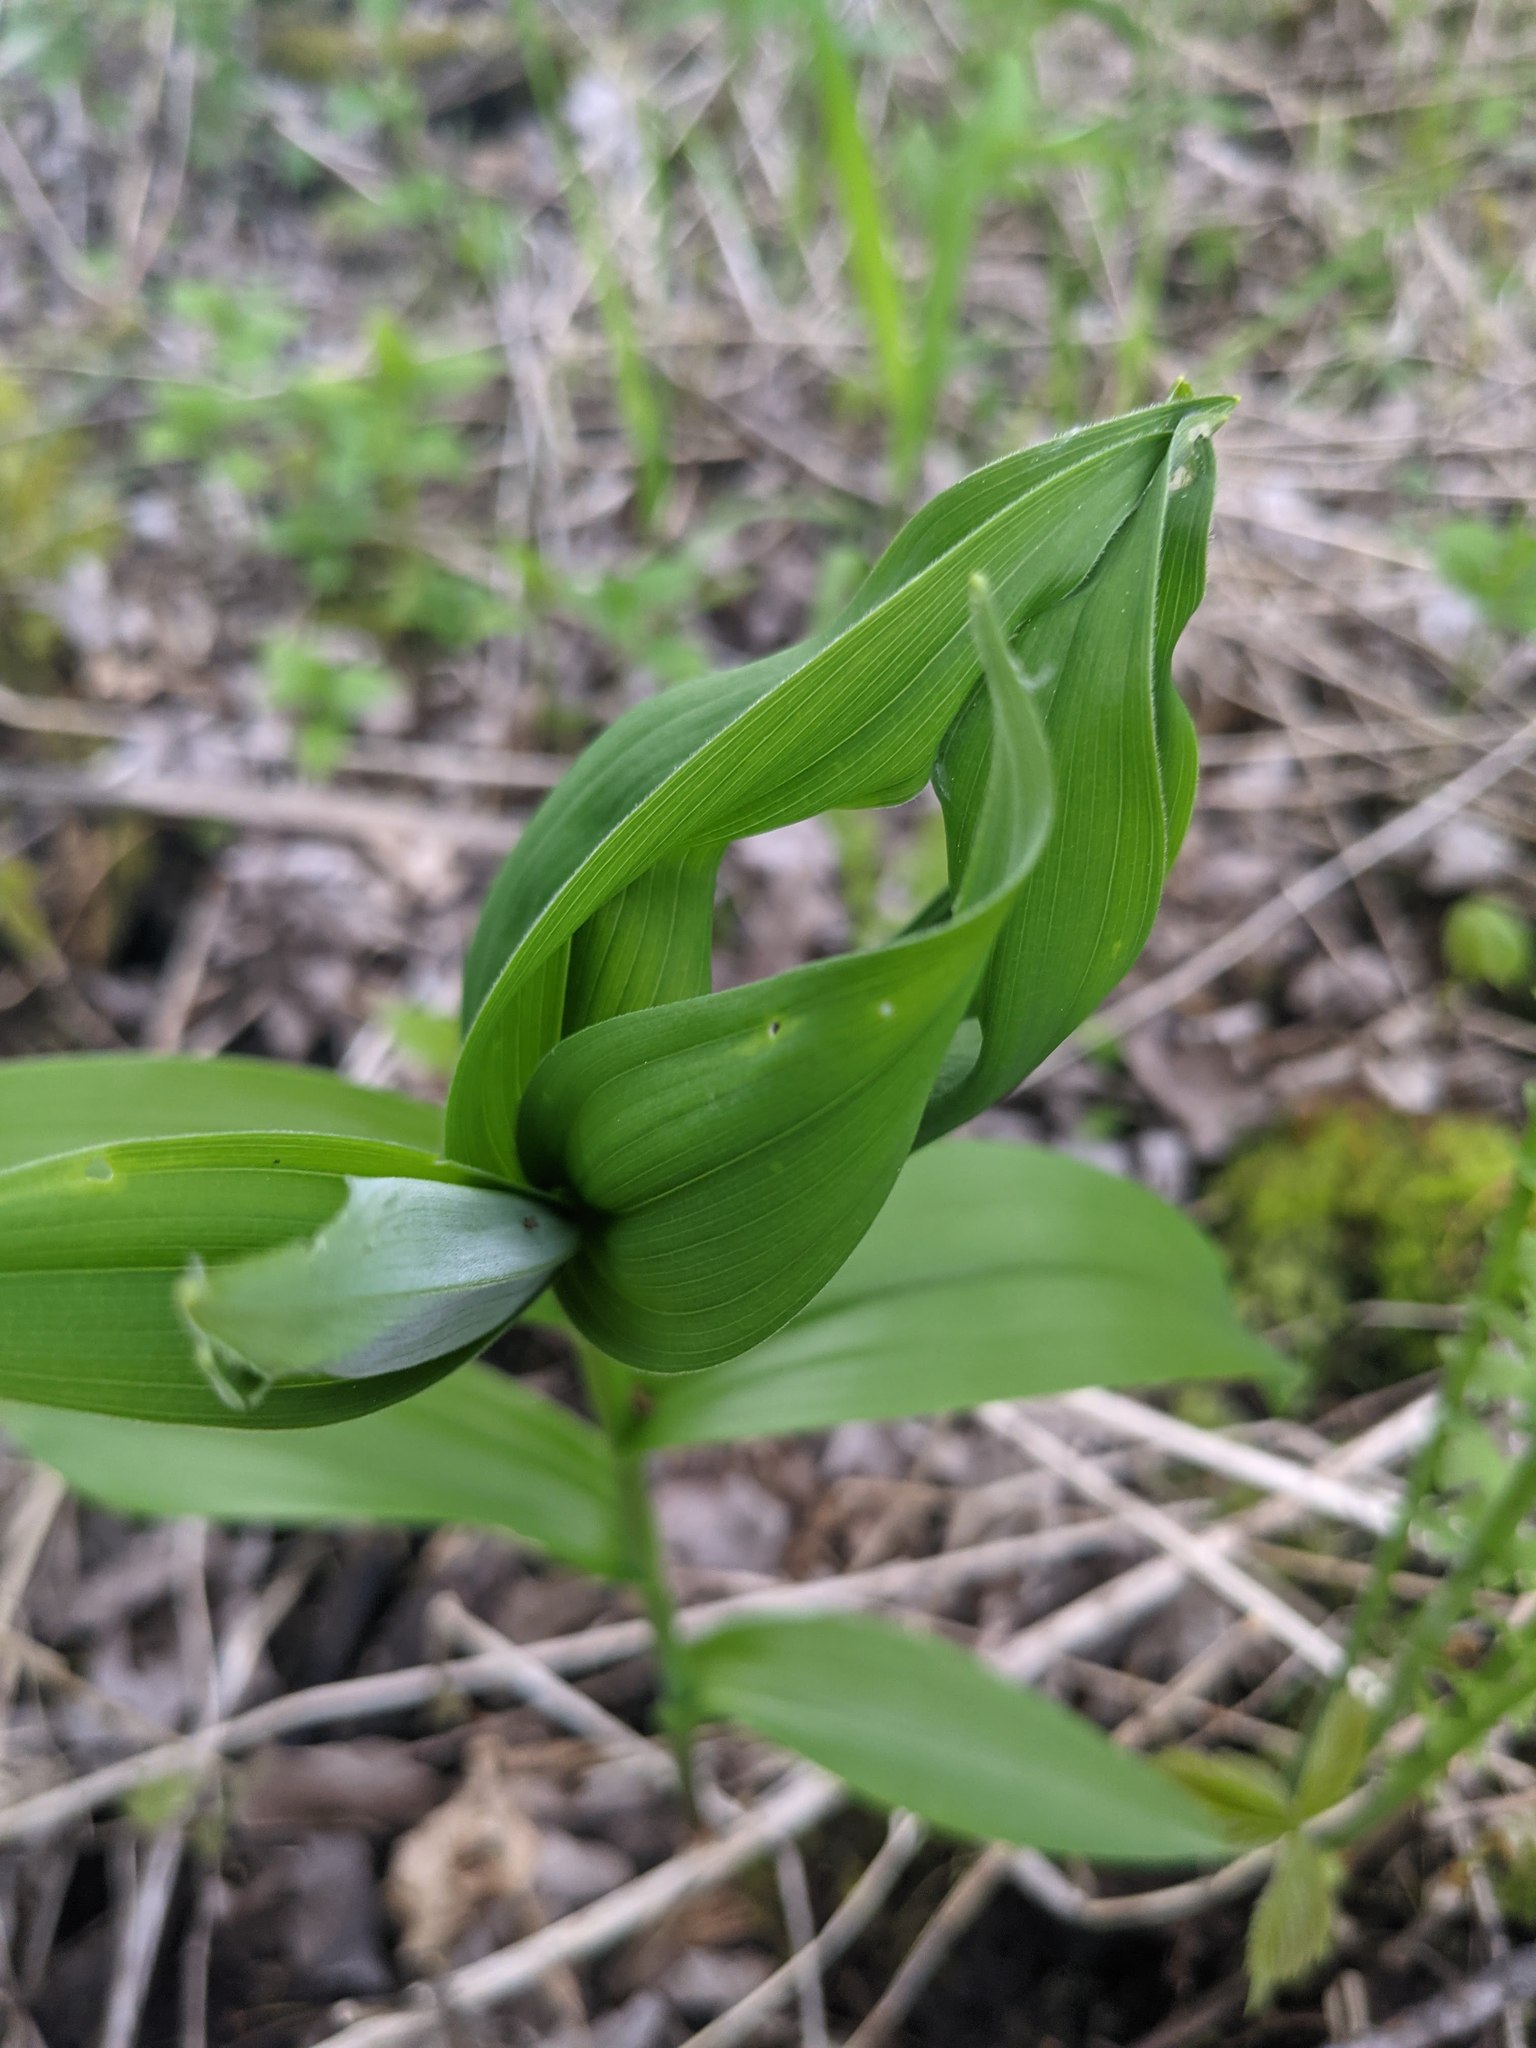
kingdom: Plantae
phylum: Tracheophyta
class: Liliopsida
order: Asparagales
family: Asparagaceae
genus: Maianthemum
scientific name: Maianthemum stellatum
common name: Little false solomon's seal
